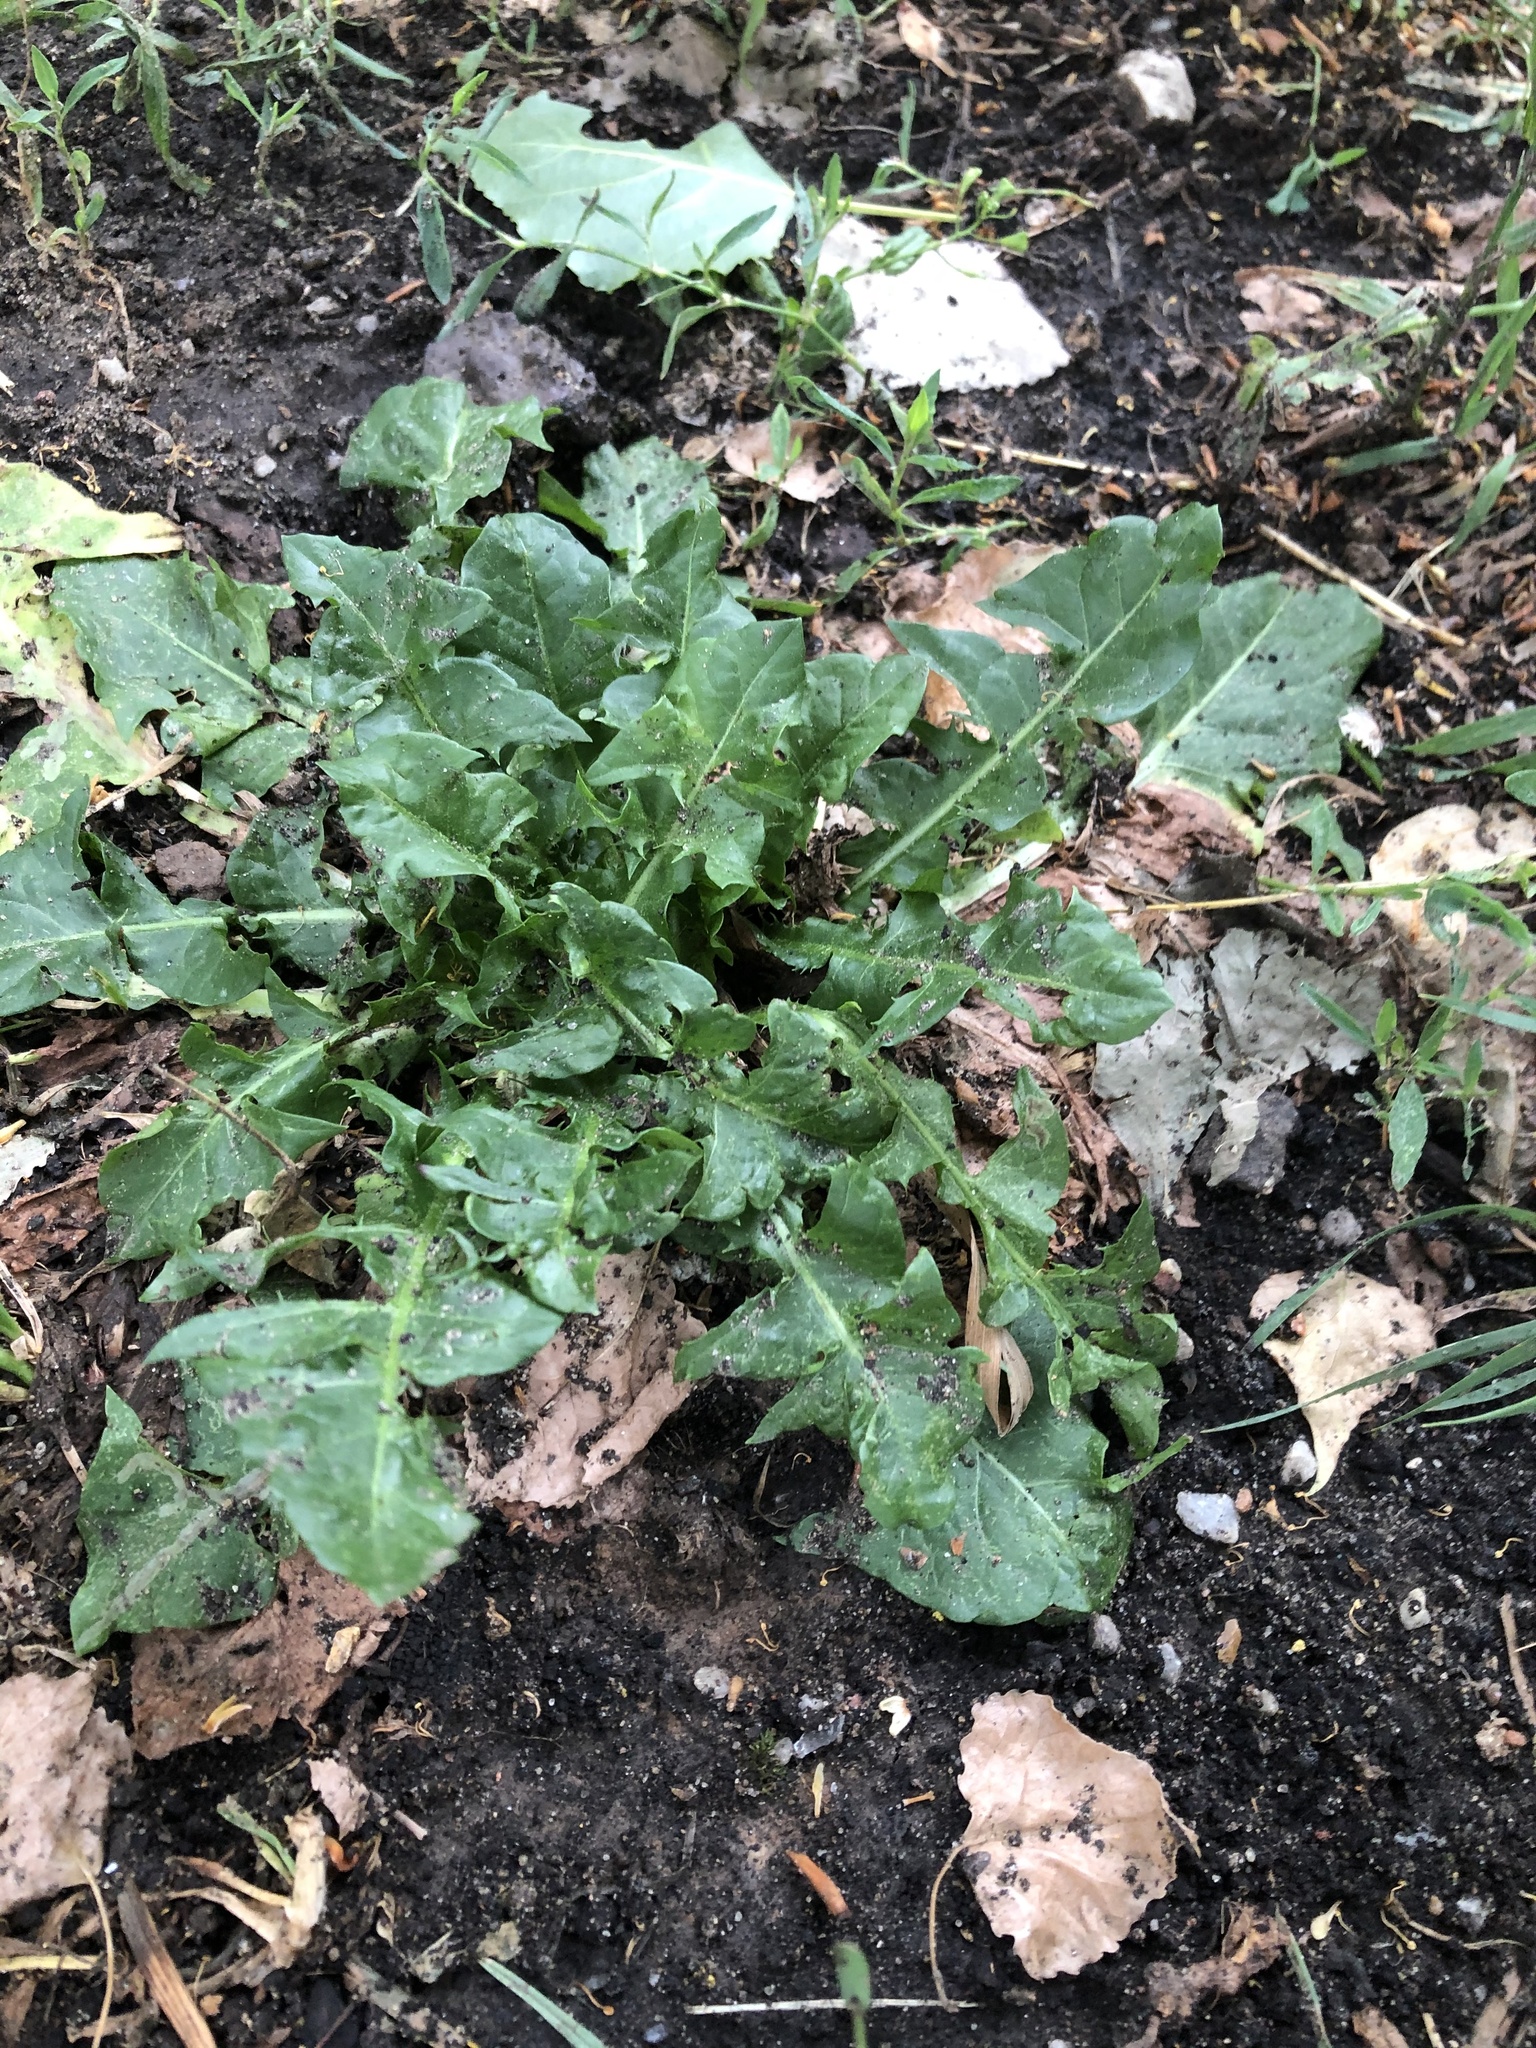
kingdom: Plantae
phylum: Tracheophyta
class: Magnoliopsida
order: Asterales
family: Asteraceae
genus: Taraxacum
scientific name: Taraxacum officinale
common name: Common dandelion
